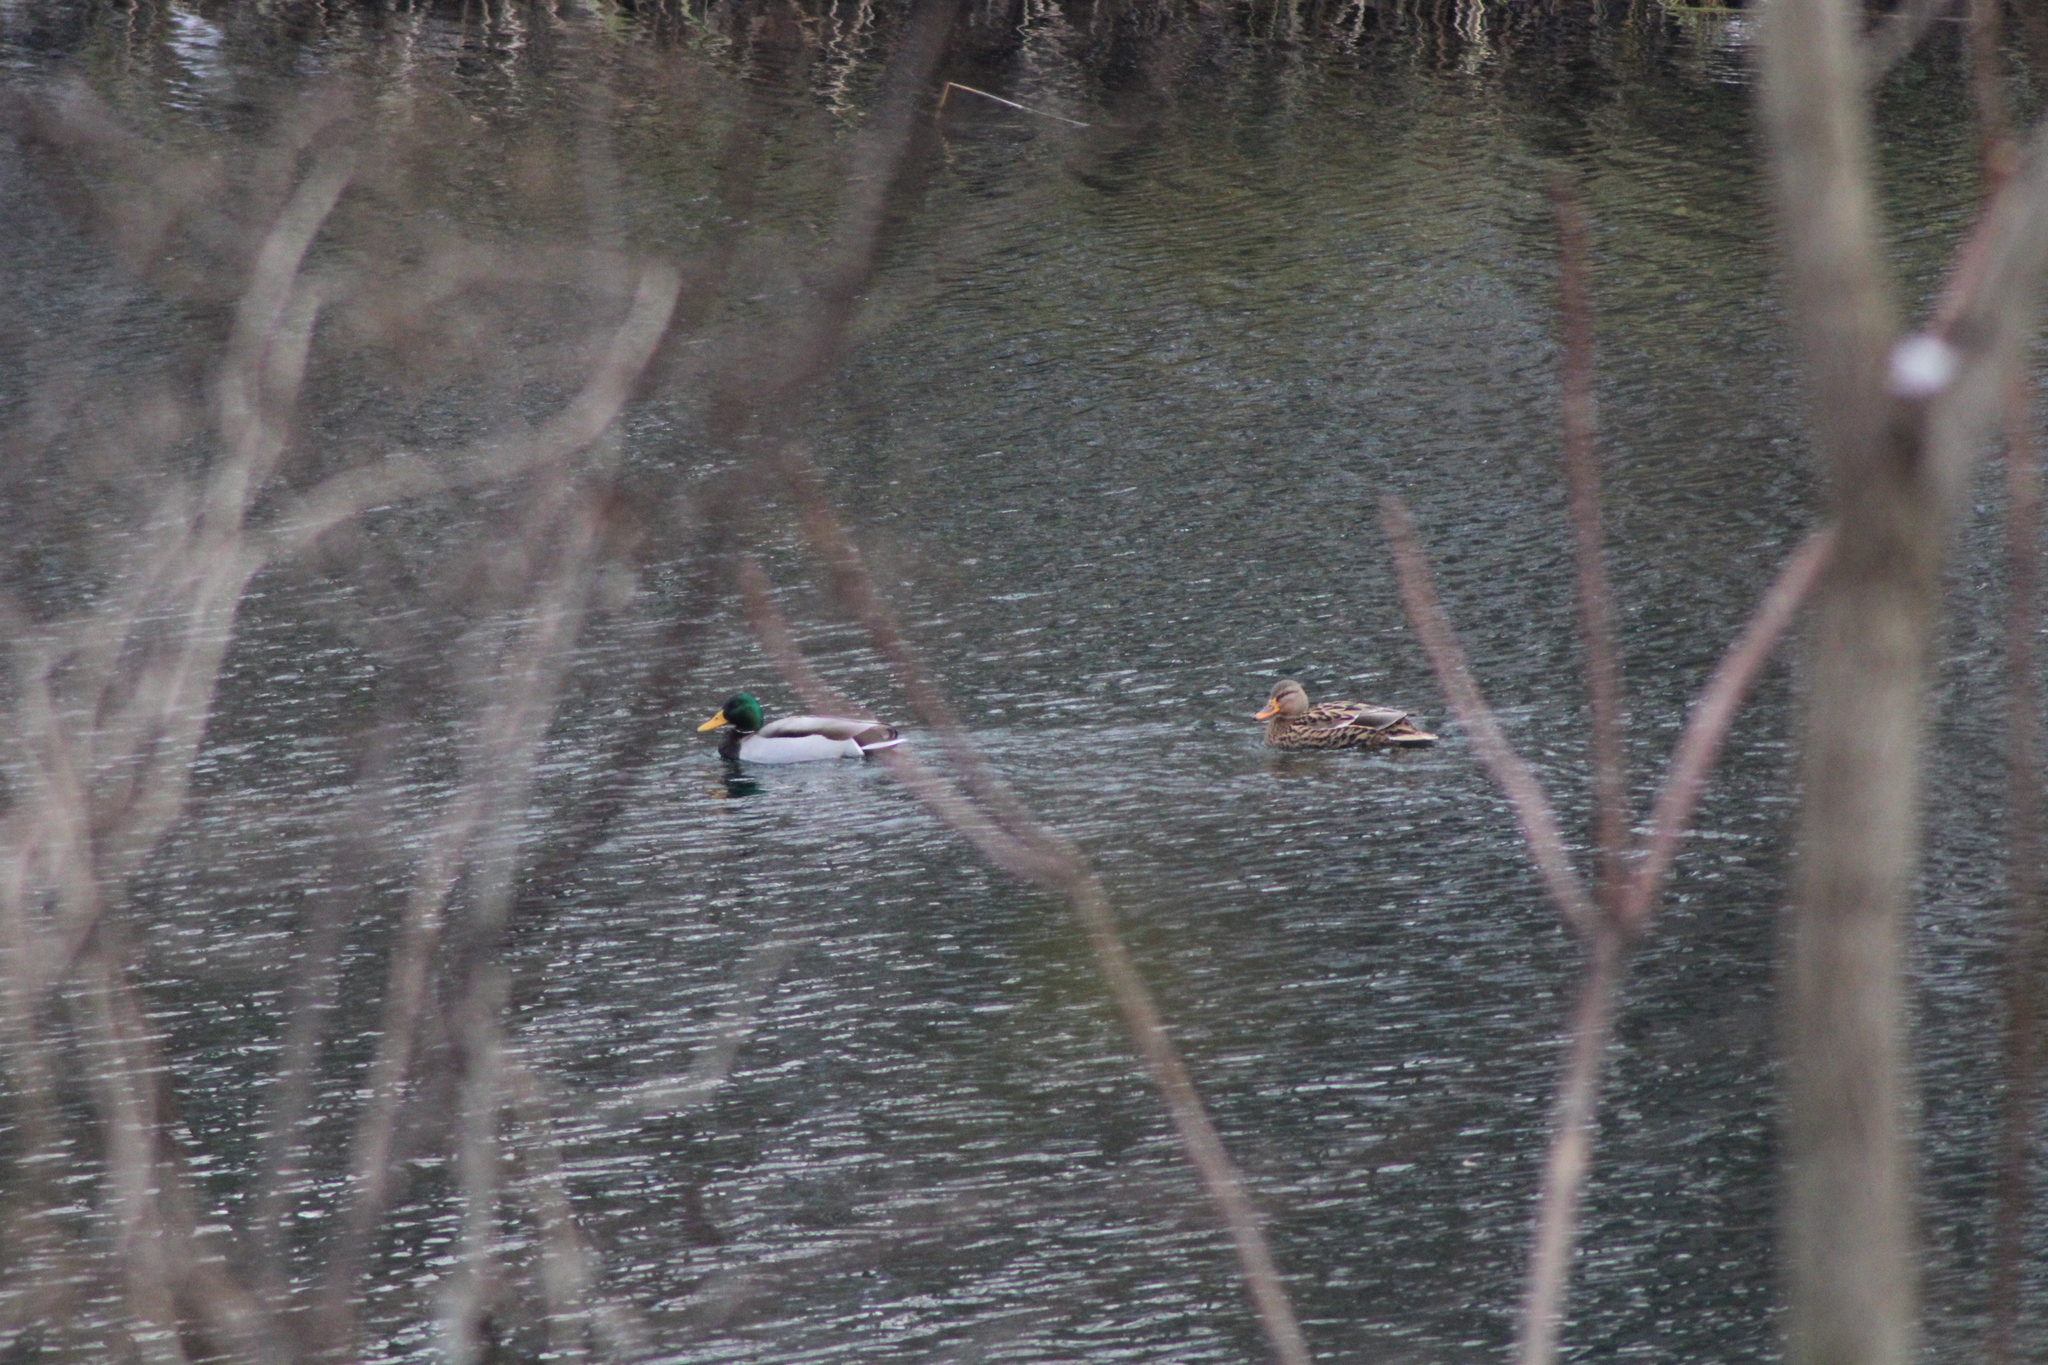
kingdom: Animalia
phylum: Chordata
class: Aves
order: Anseriformes
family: Anatidae
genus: Anas
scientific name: Anas platyrhynchos
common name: Mallard
